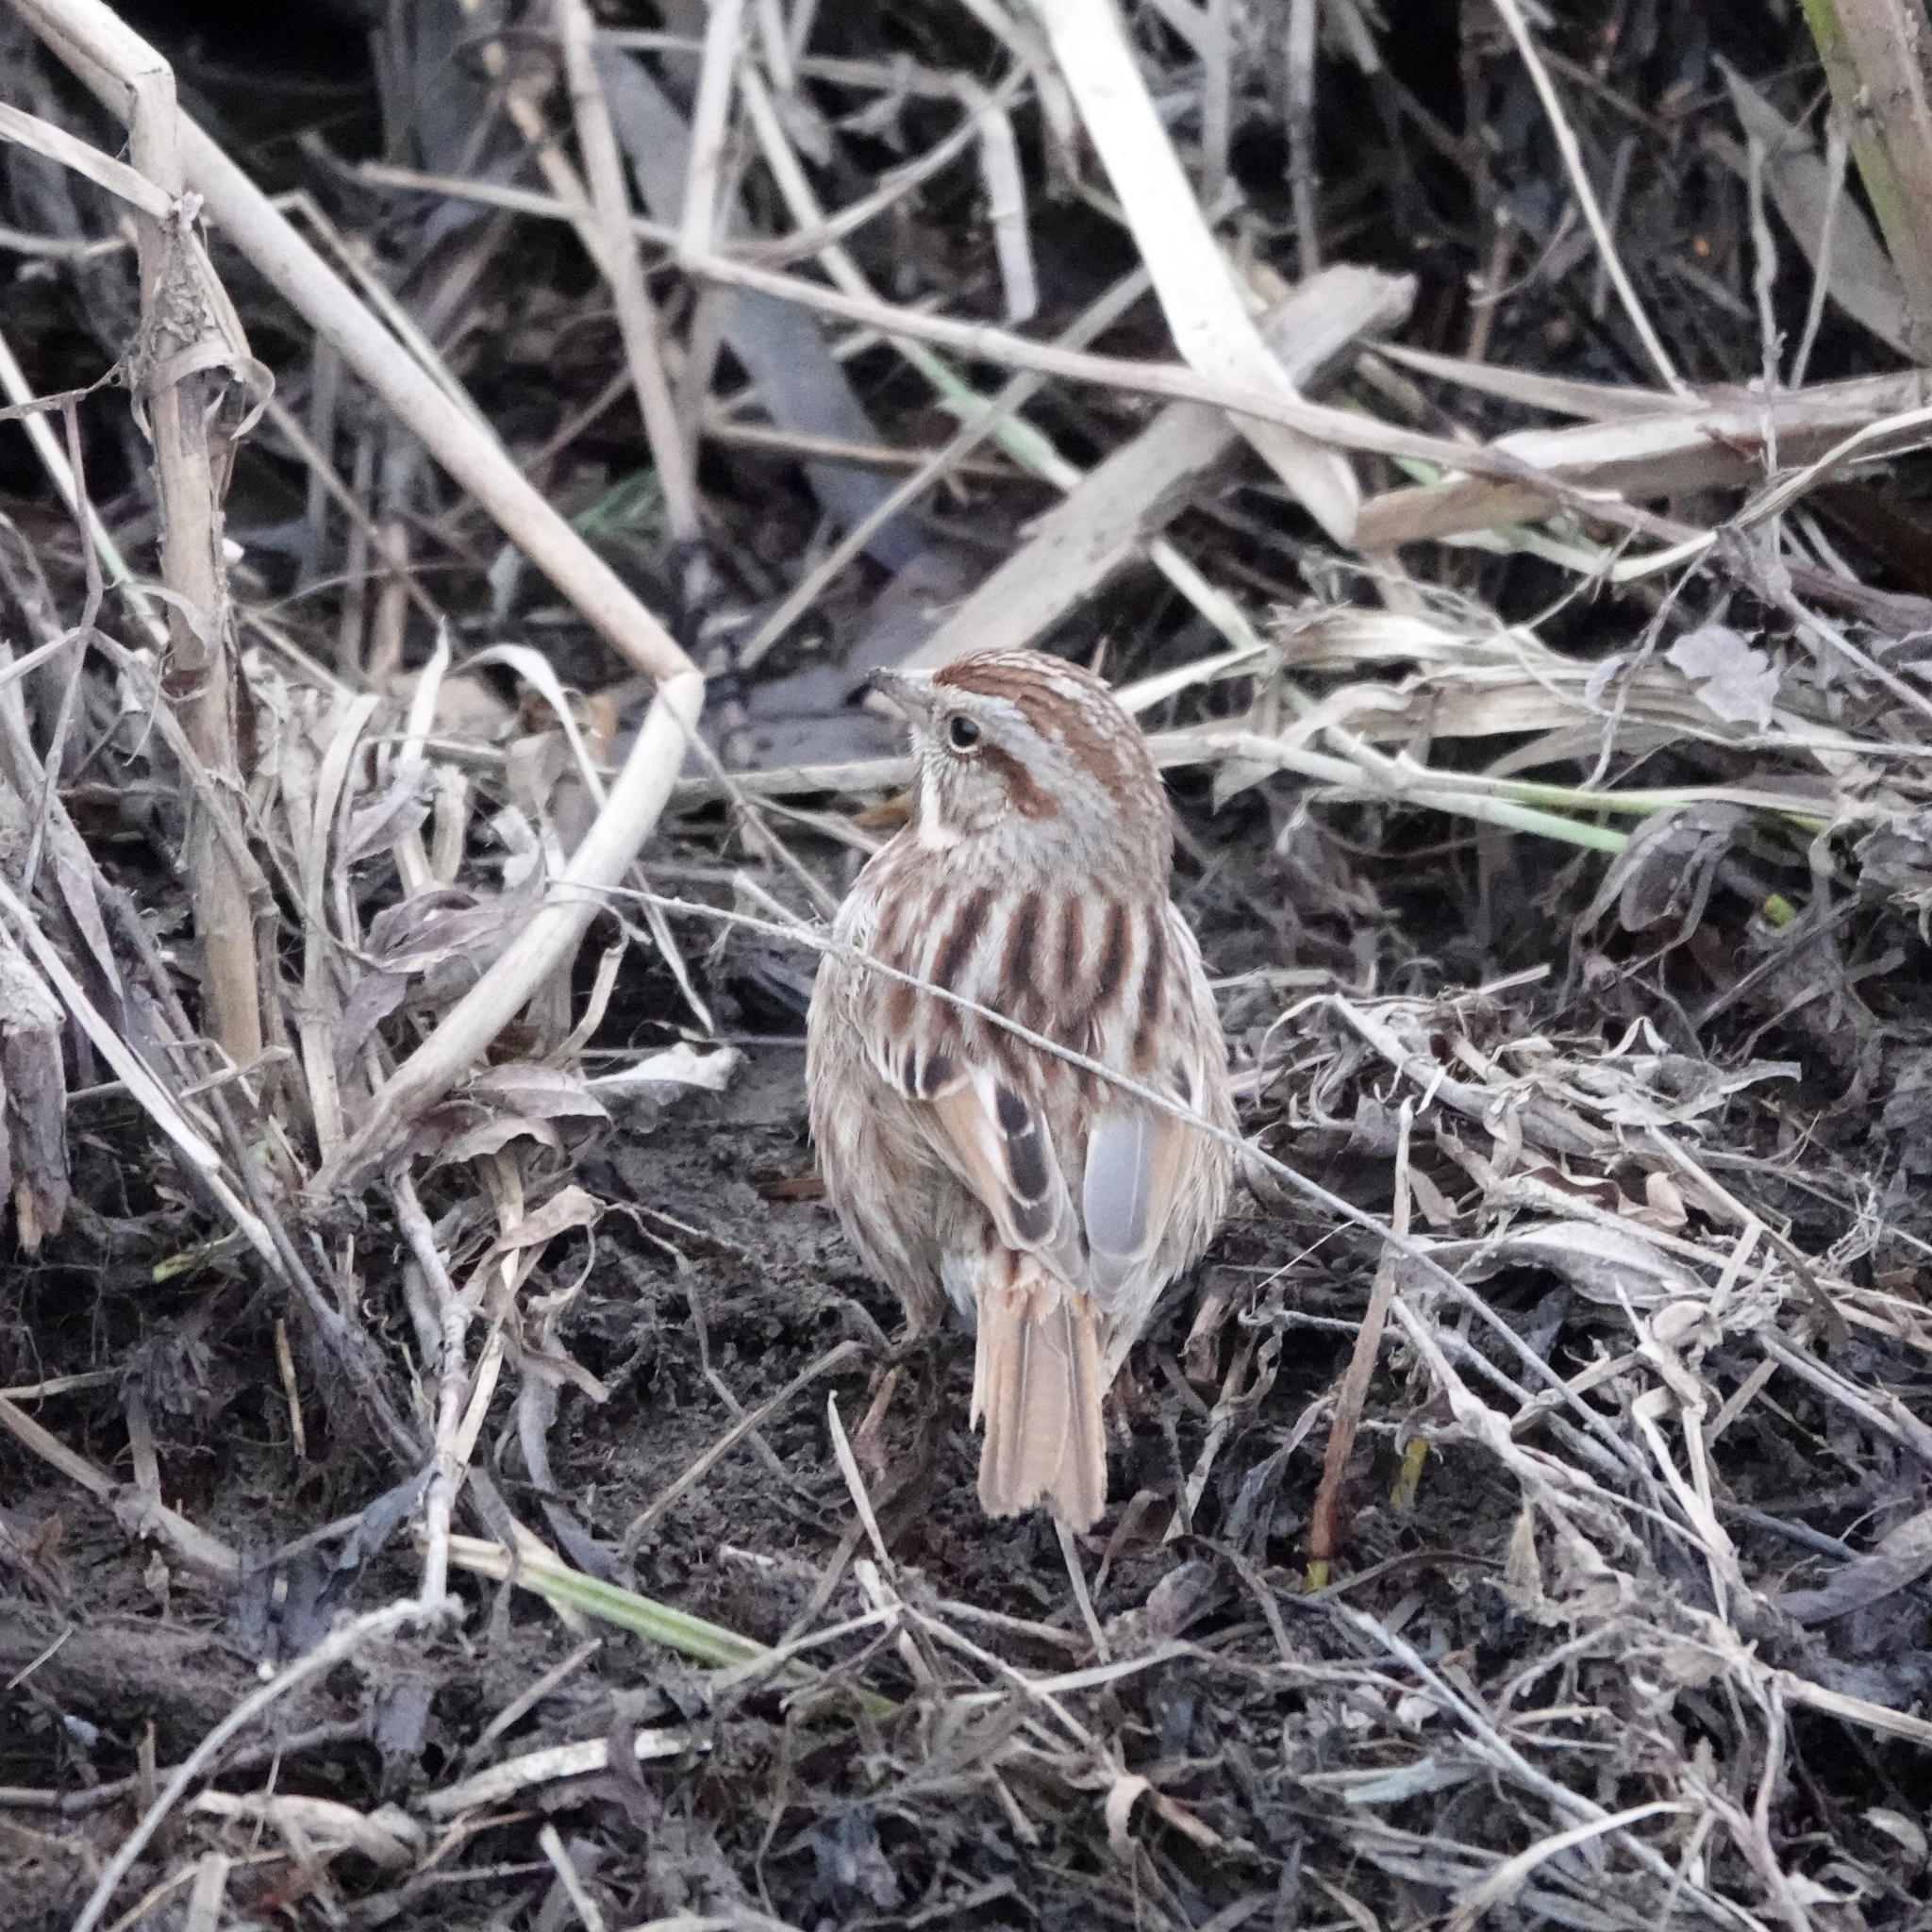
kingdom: Animalia
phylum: Chordata
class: Aves
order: Passeriformes
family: Passerellidae
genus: Melospiza
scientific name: Melospiza melodia
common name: Song sparrow
